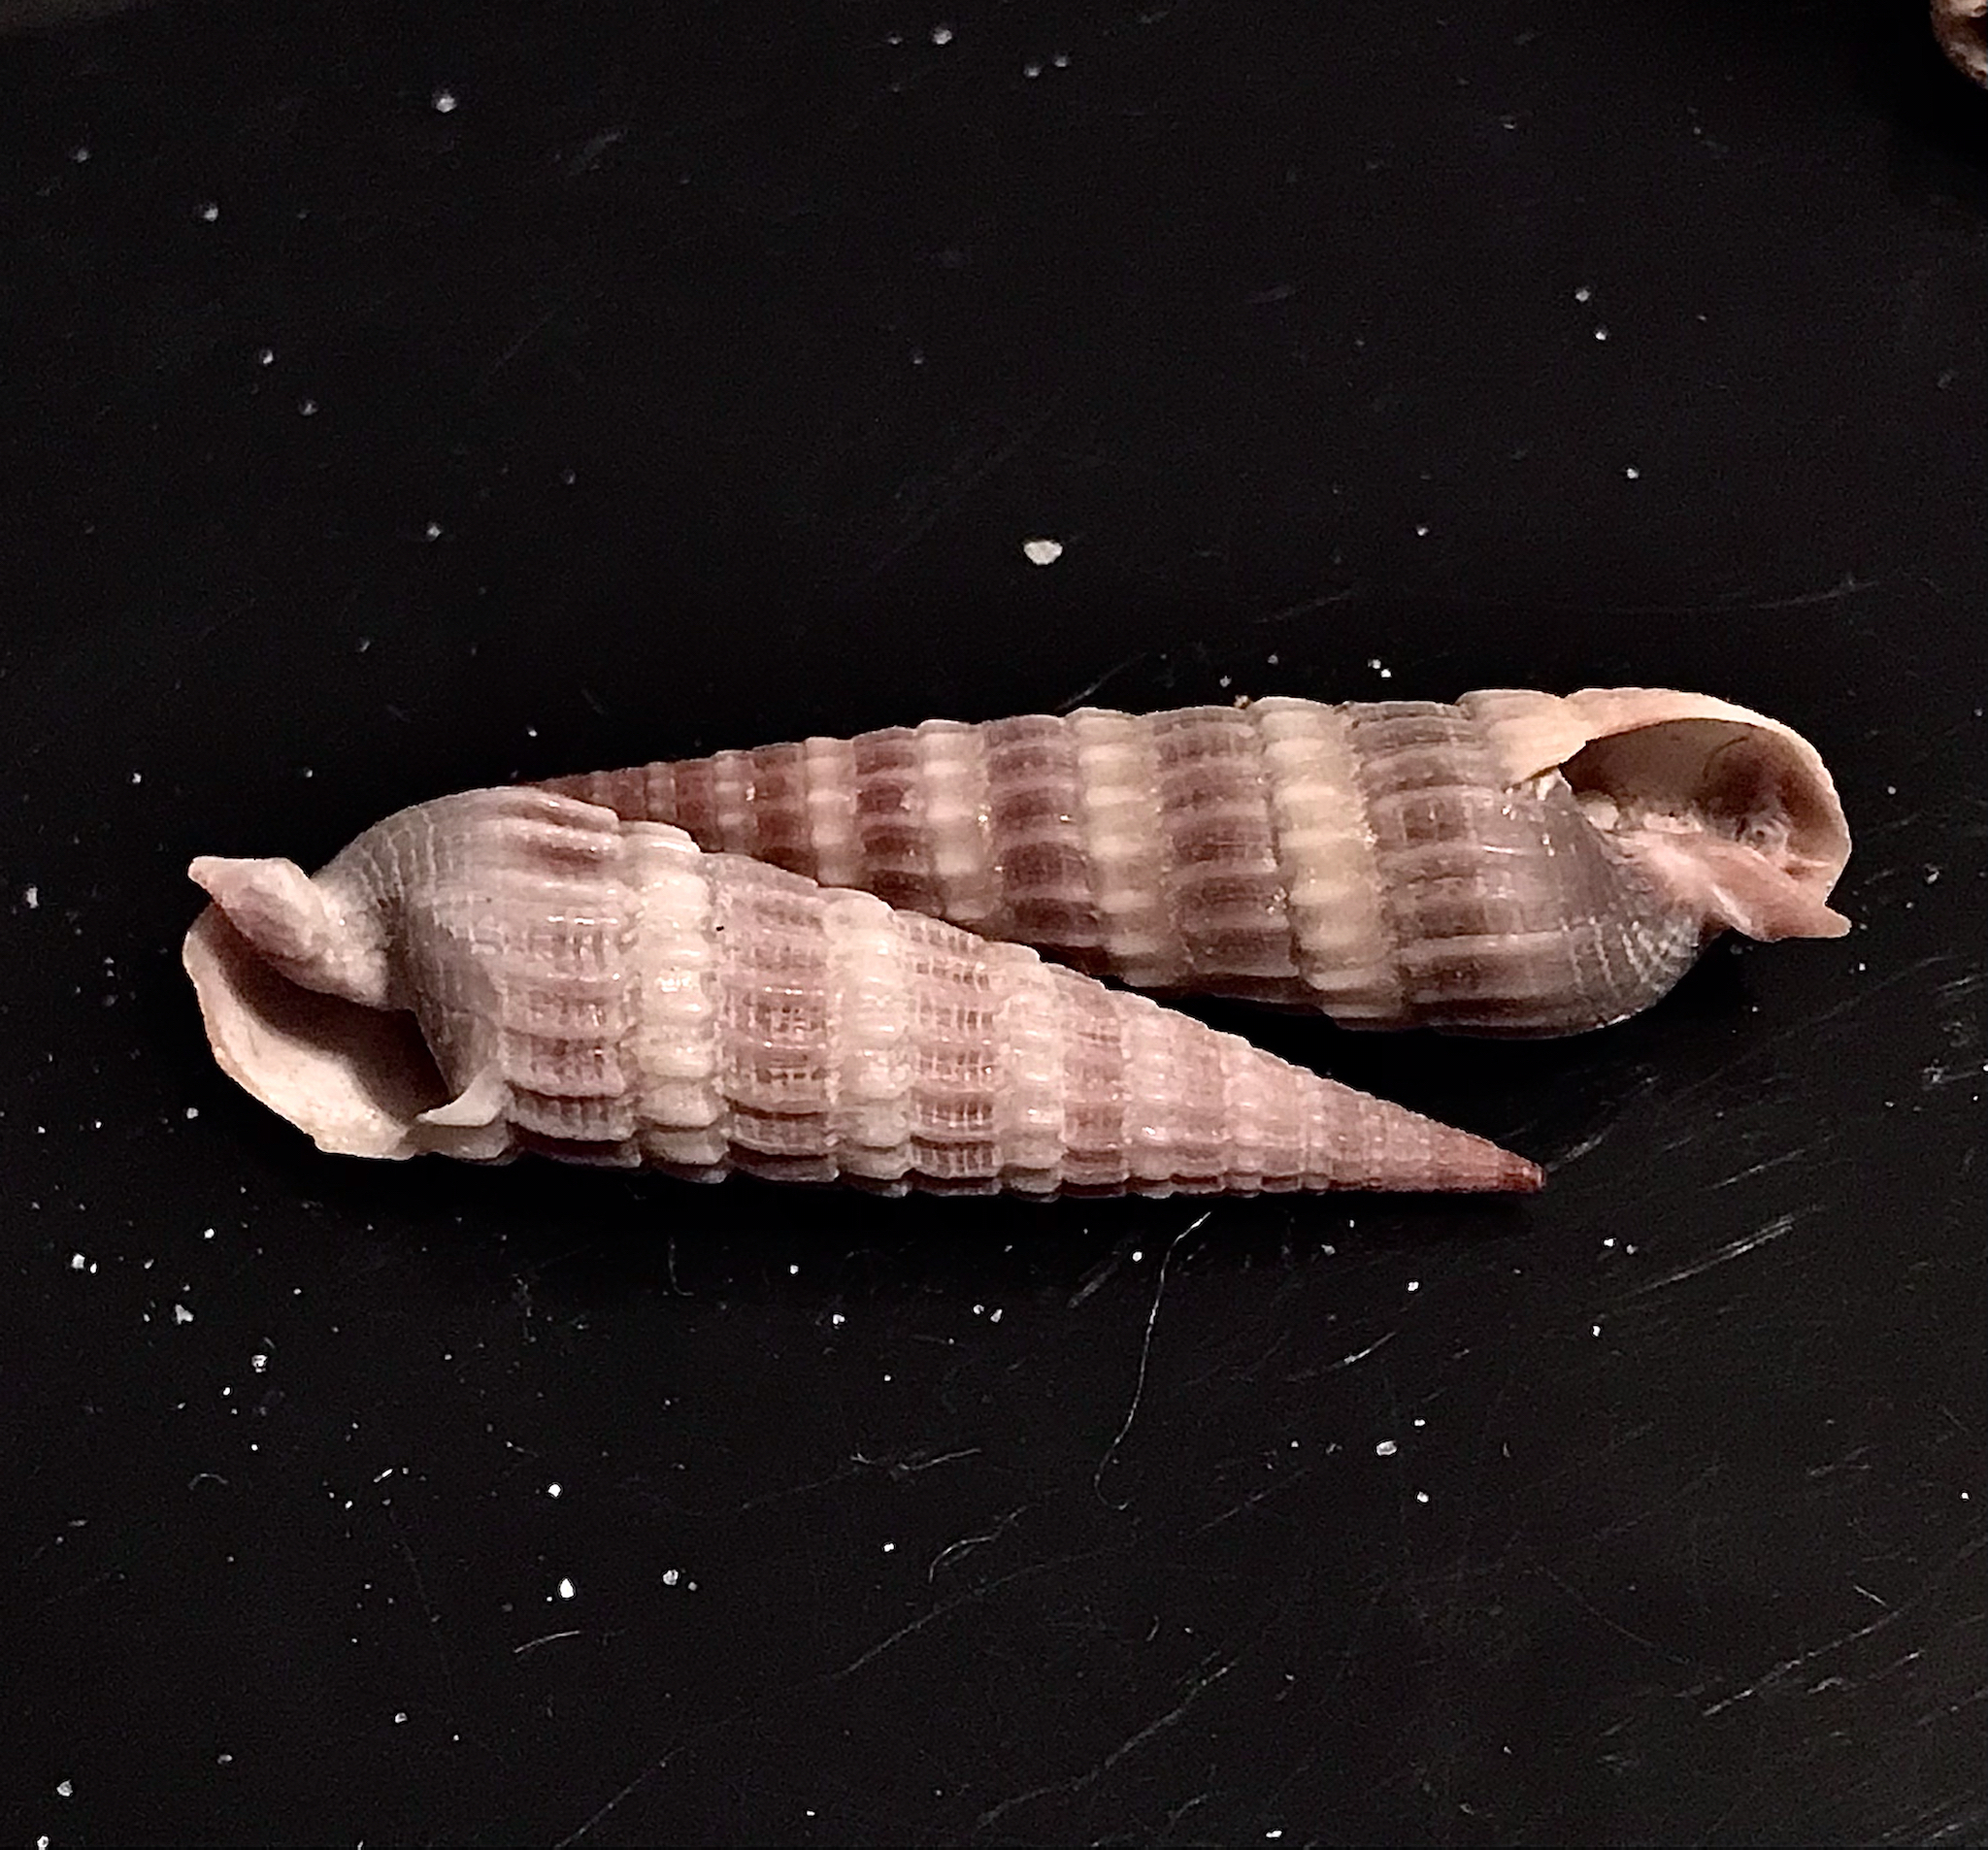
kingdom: Animalia
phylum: Mollusca
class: Gastropoda
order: Neogastropoda
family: Terebridae
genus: Neoterebra
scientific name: Neoterebra dislocata
